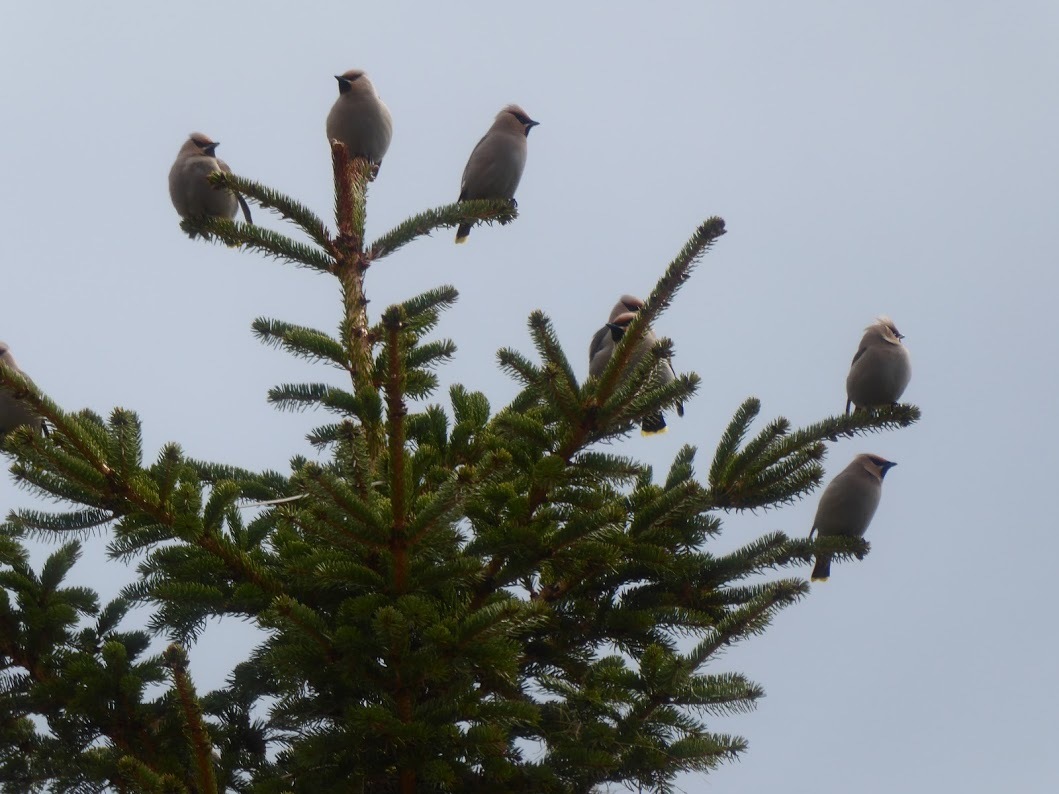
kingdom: Animalia
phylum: Chordata
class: Aves
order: Passeriformes
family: Bombycillidae
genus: Bombycilla
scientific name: Bombycilla garrulus
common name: Bohemian waxwing
